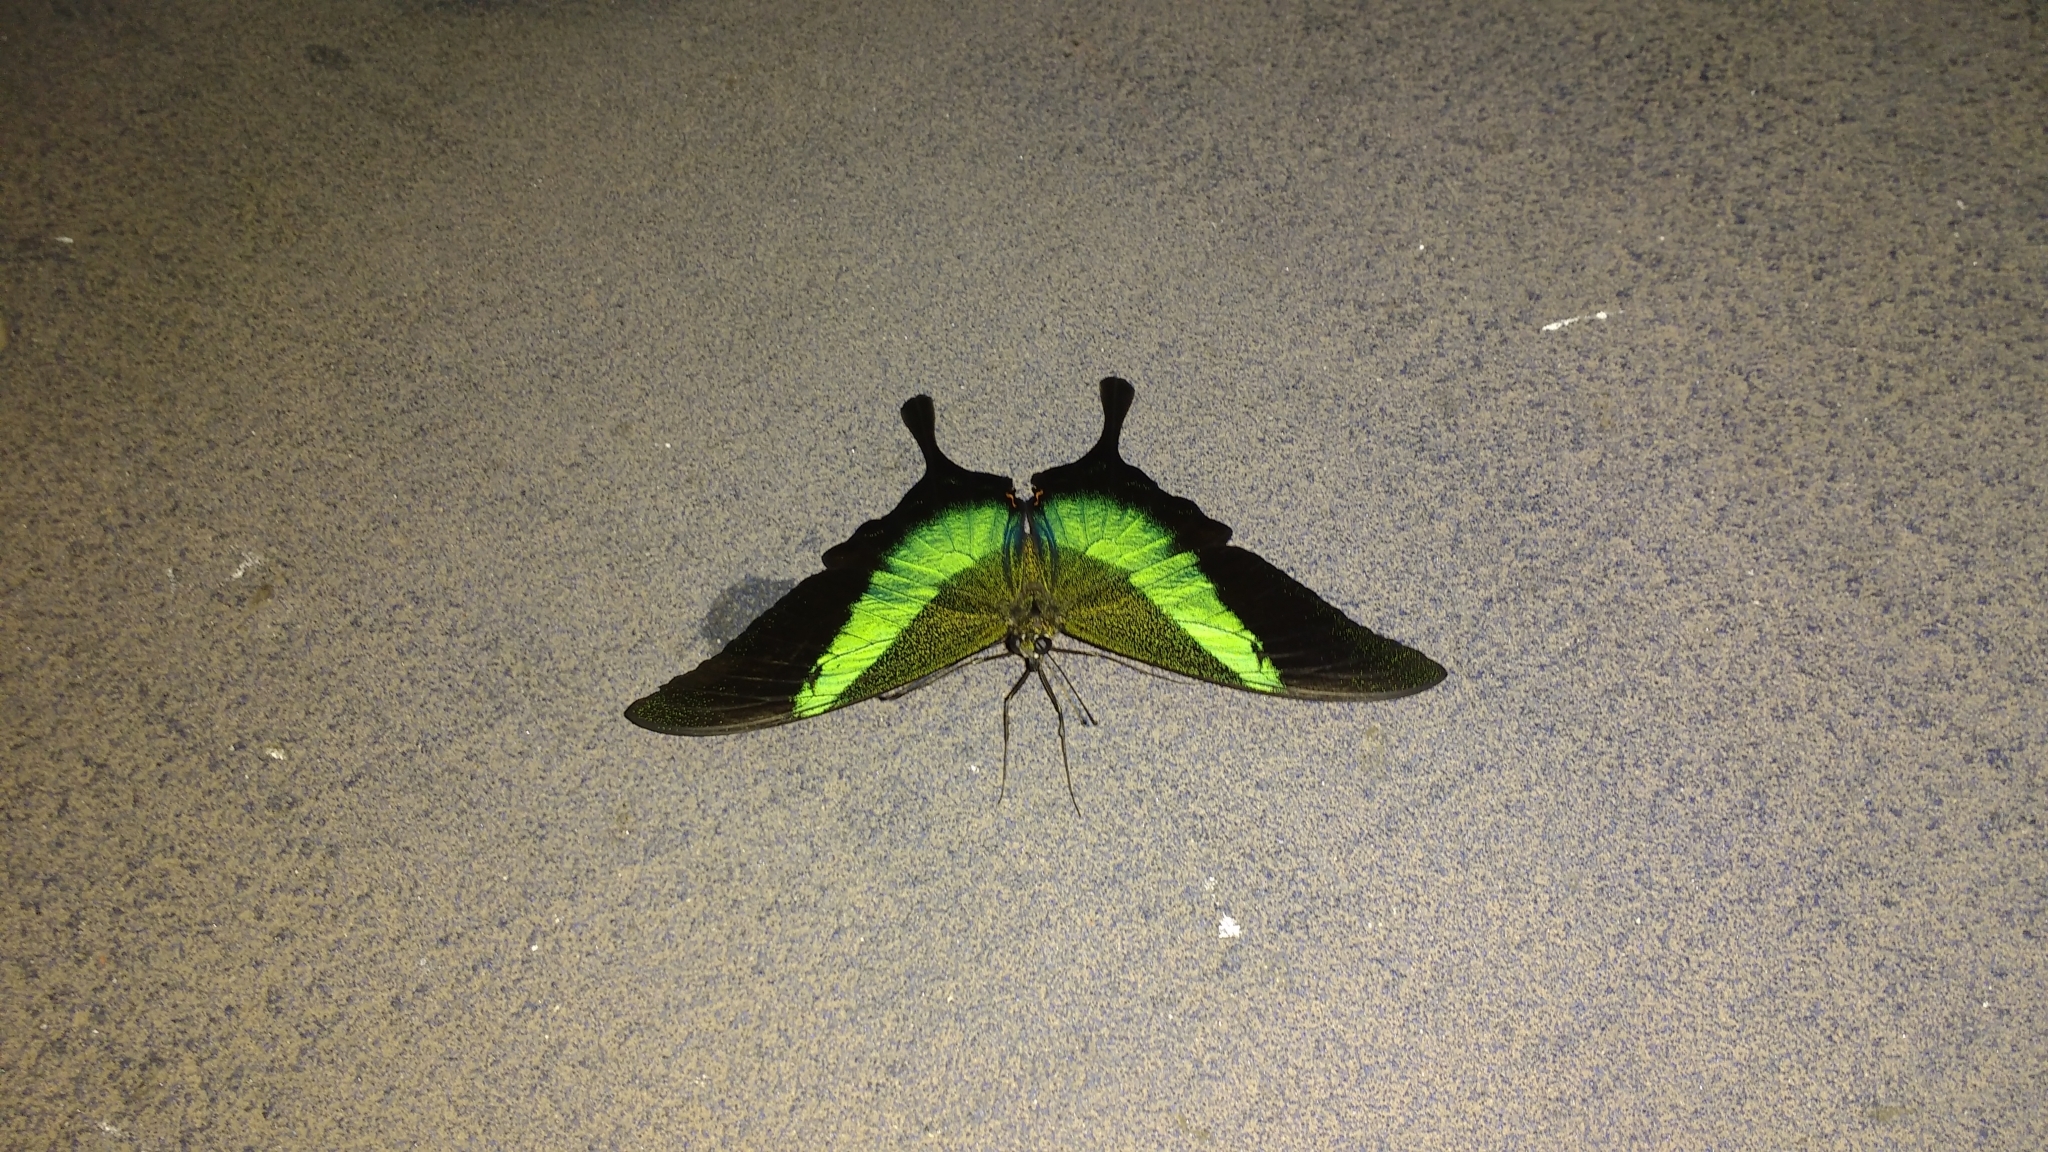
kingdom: Animalia
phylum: Arthropoda
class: Insecta
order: Lepidoptera
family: Papilionidae
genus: Papilio
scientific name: Papilio buddha
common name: Malabar banded peacock
